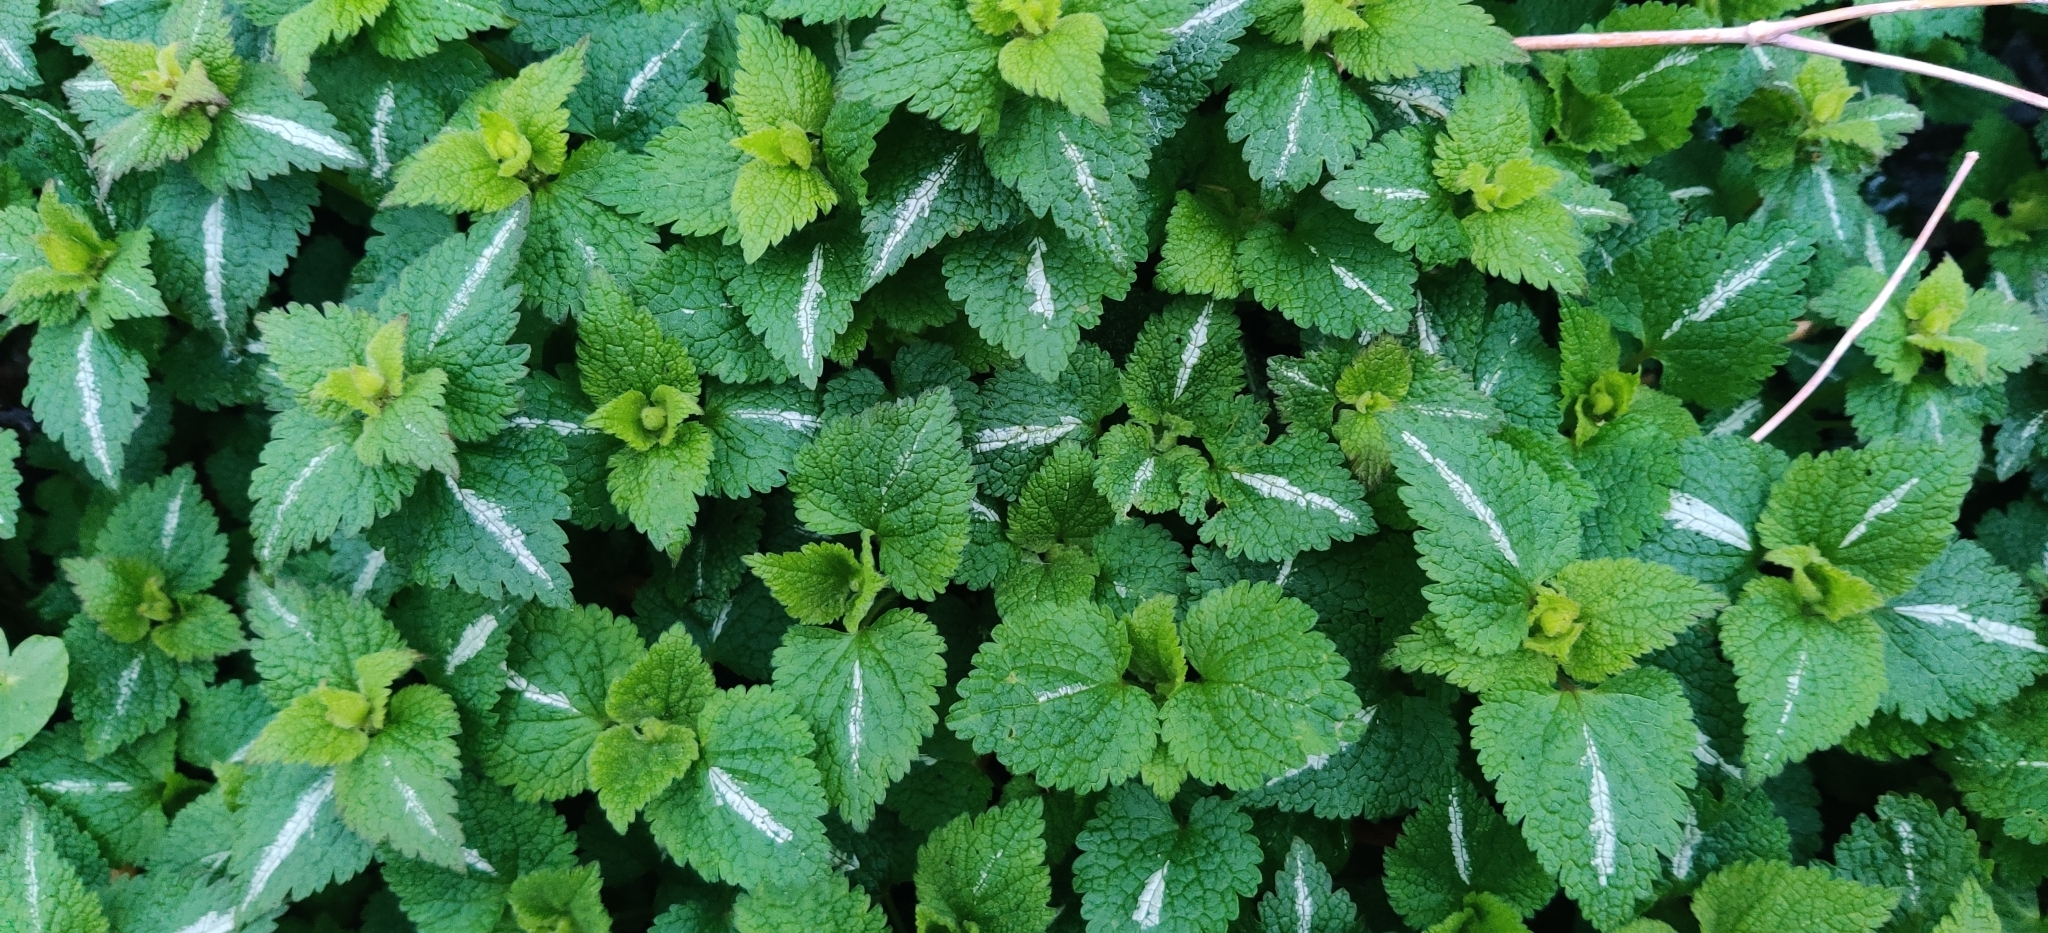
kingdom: Plantae
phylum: Tracheophyta
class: Magnoliopsida
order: Lamiales
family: Lamiaceae
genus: Lamium
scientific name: Lamium maculatum
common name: Spotted dead-nettle
